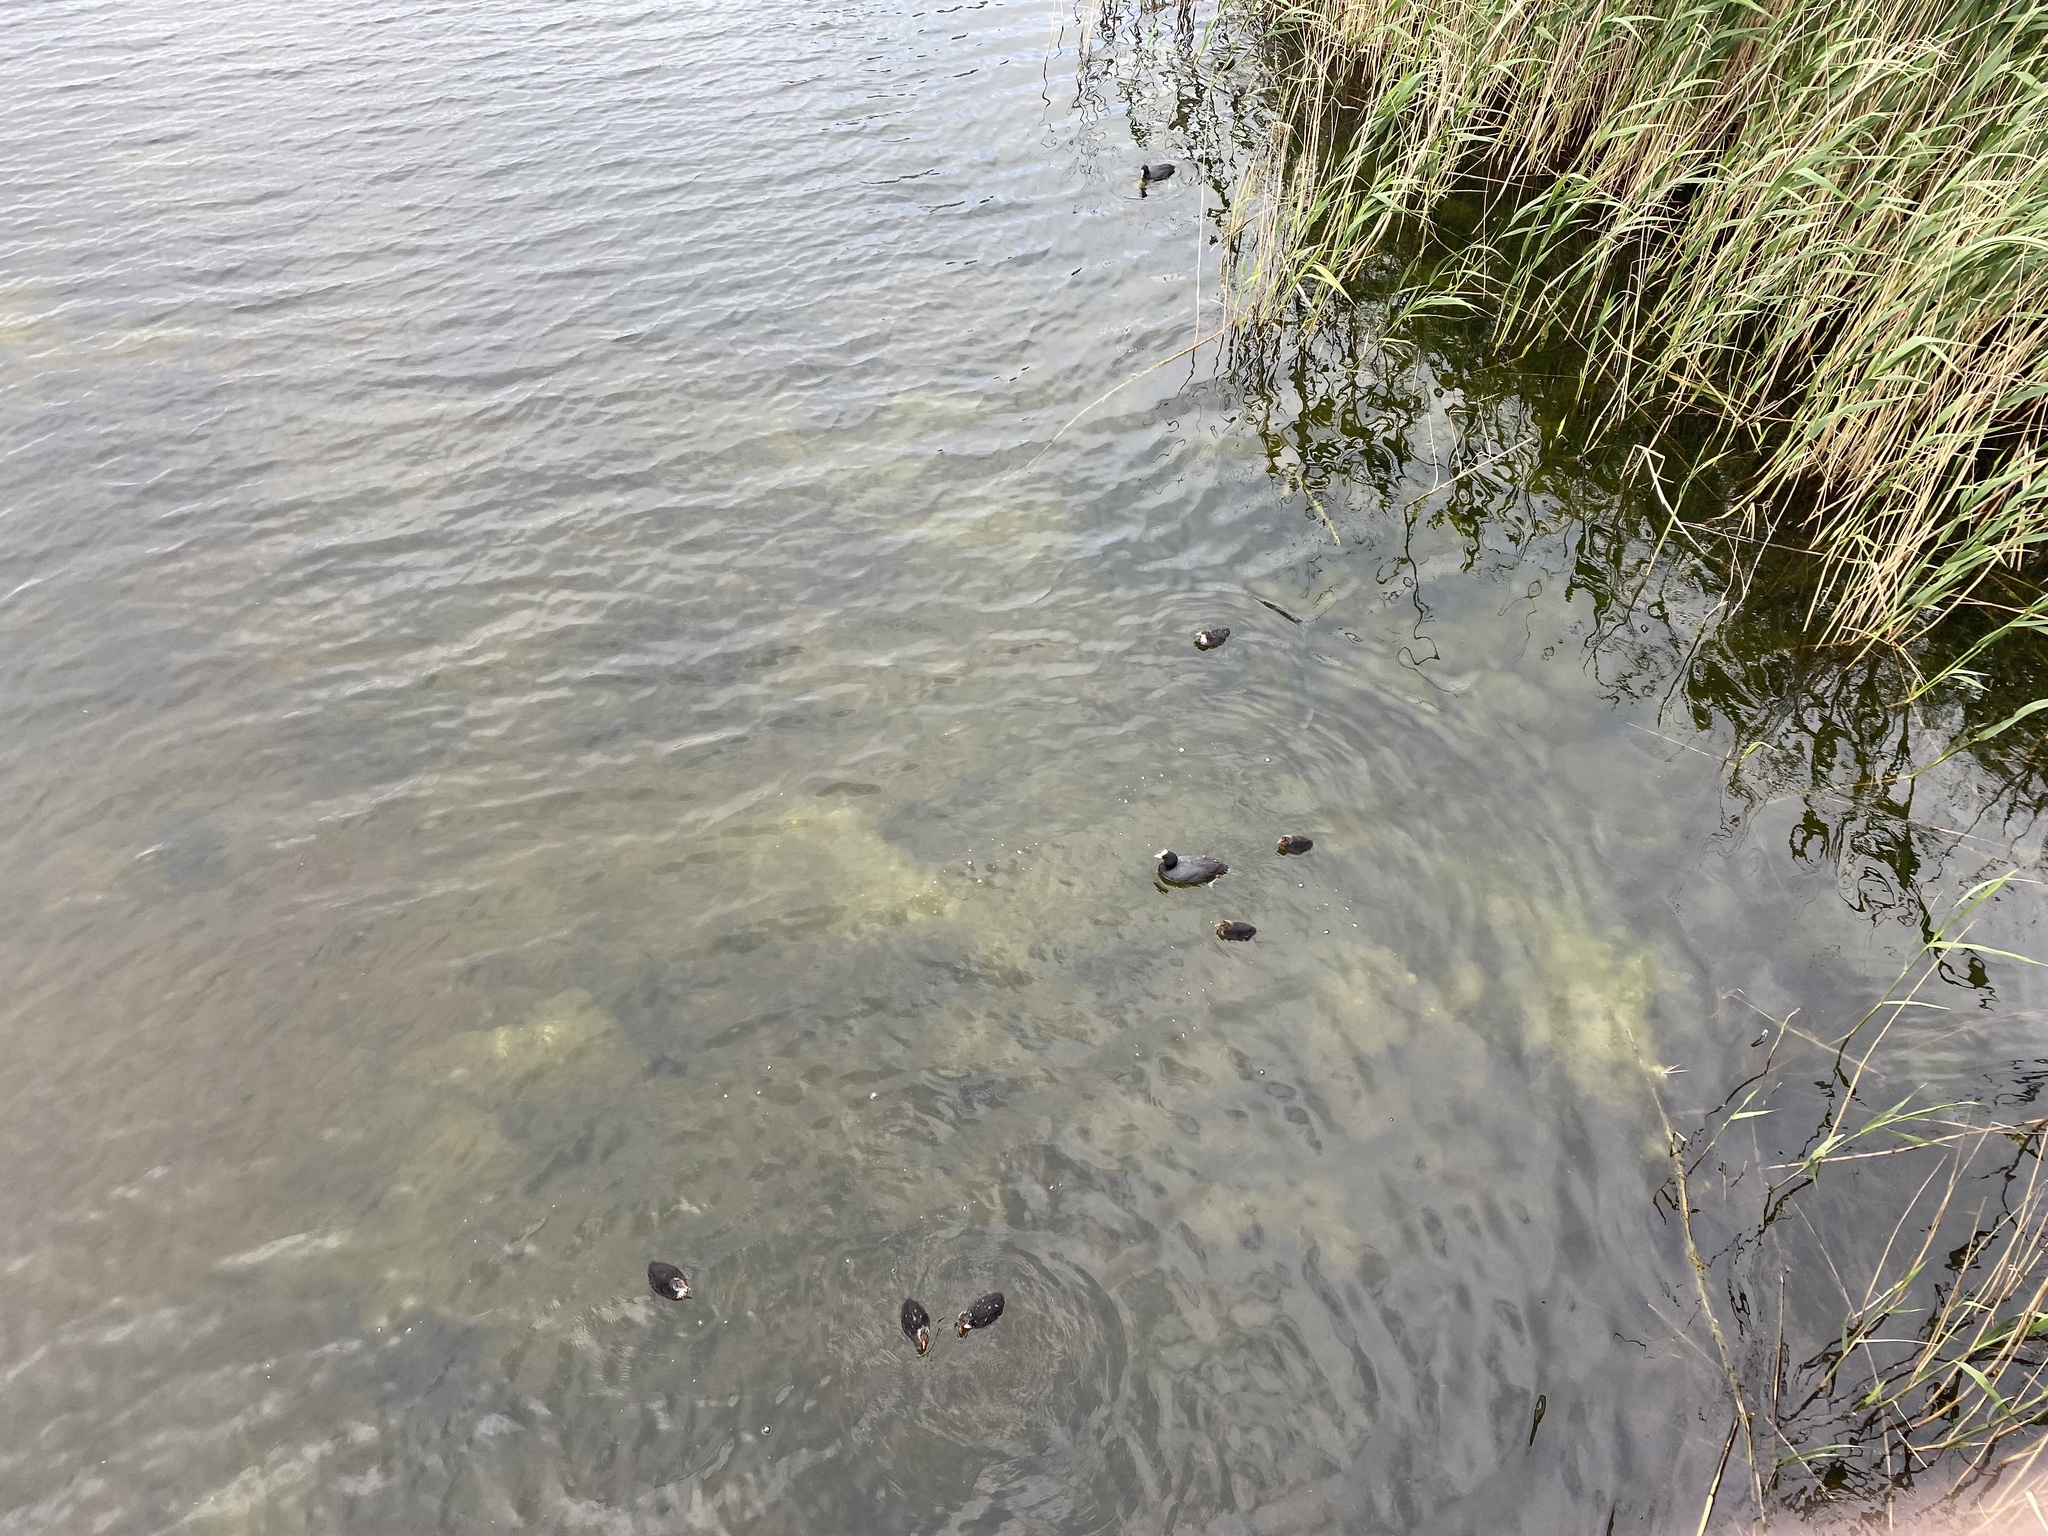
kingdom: Animalia
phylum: Chordata
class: Aves
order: Gruiformes
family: Rallidae
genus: Fulica
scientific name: Fulica atra
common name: Eurasian coot
